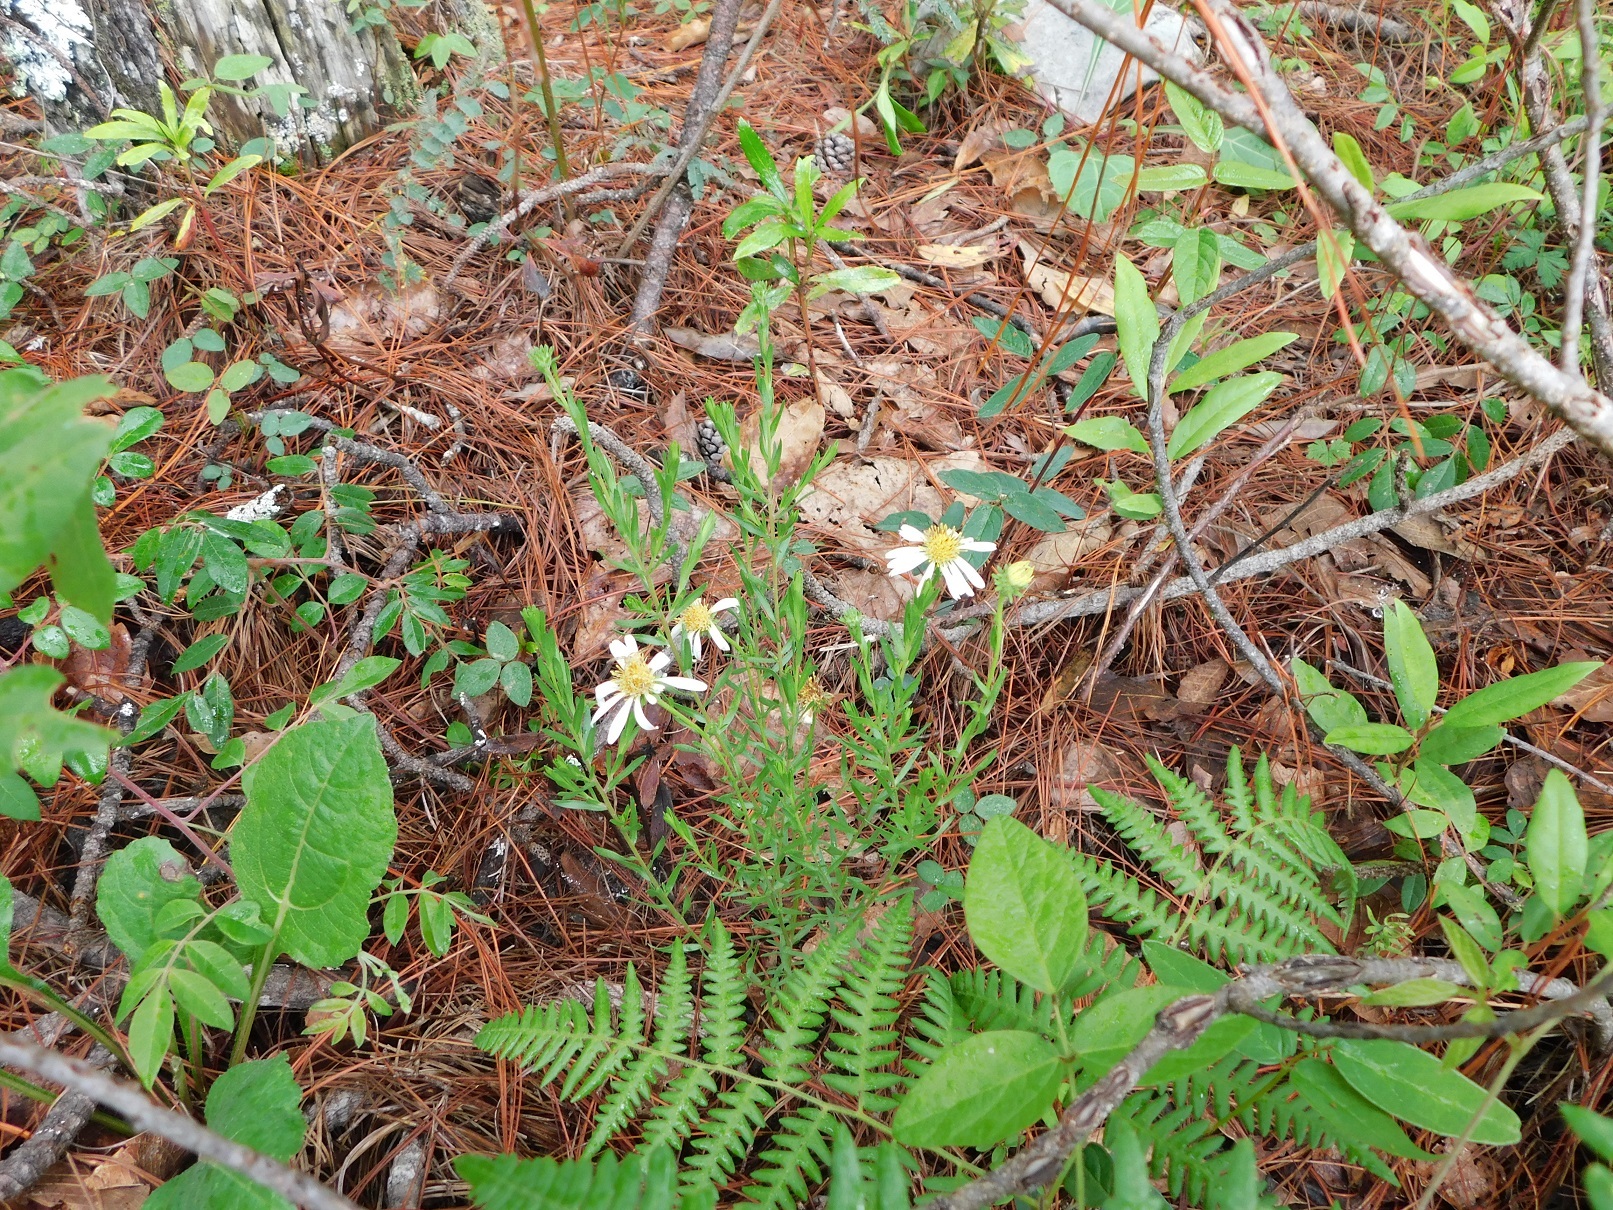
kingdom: Plantae
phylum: Tracheophyta
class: Magnoliopsida
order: Asterales
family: Asteraceae
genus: Symphyotrichum
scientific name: Symphyotrichum trilineatum
